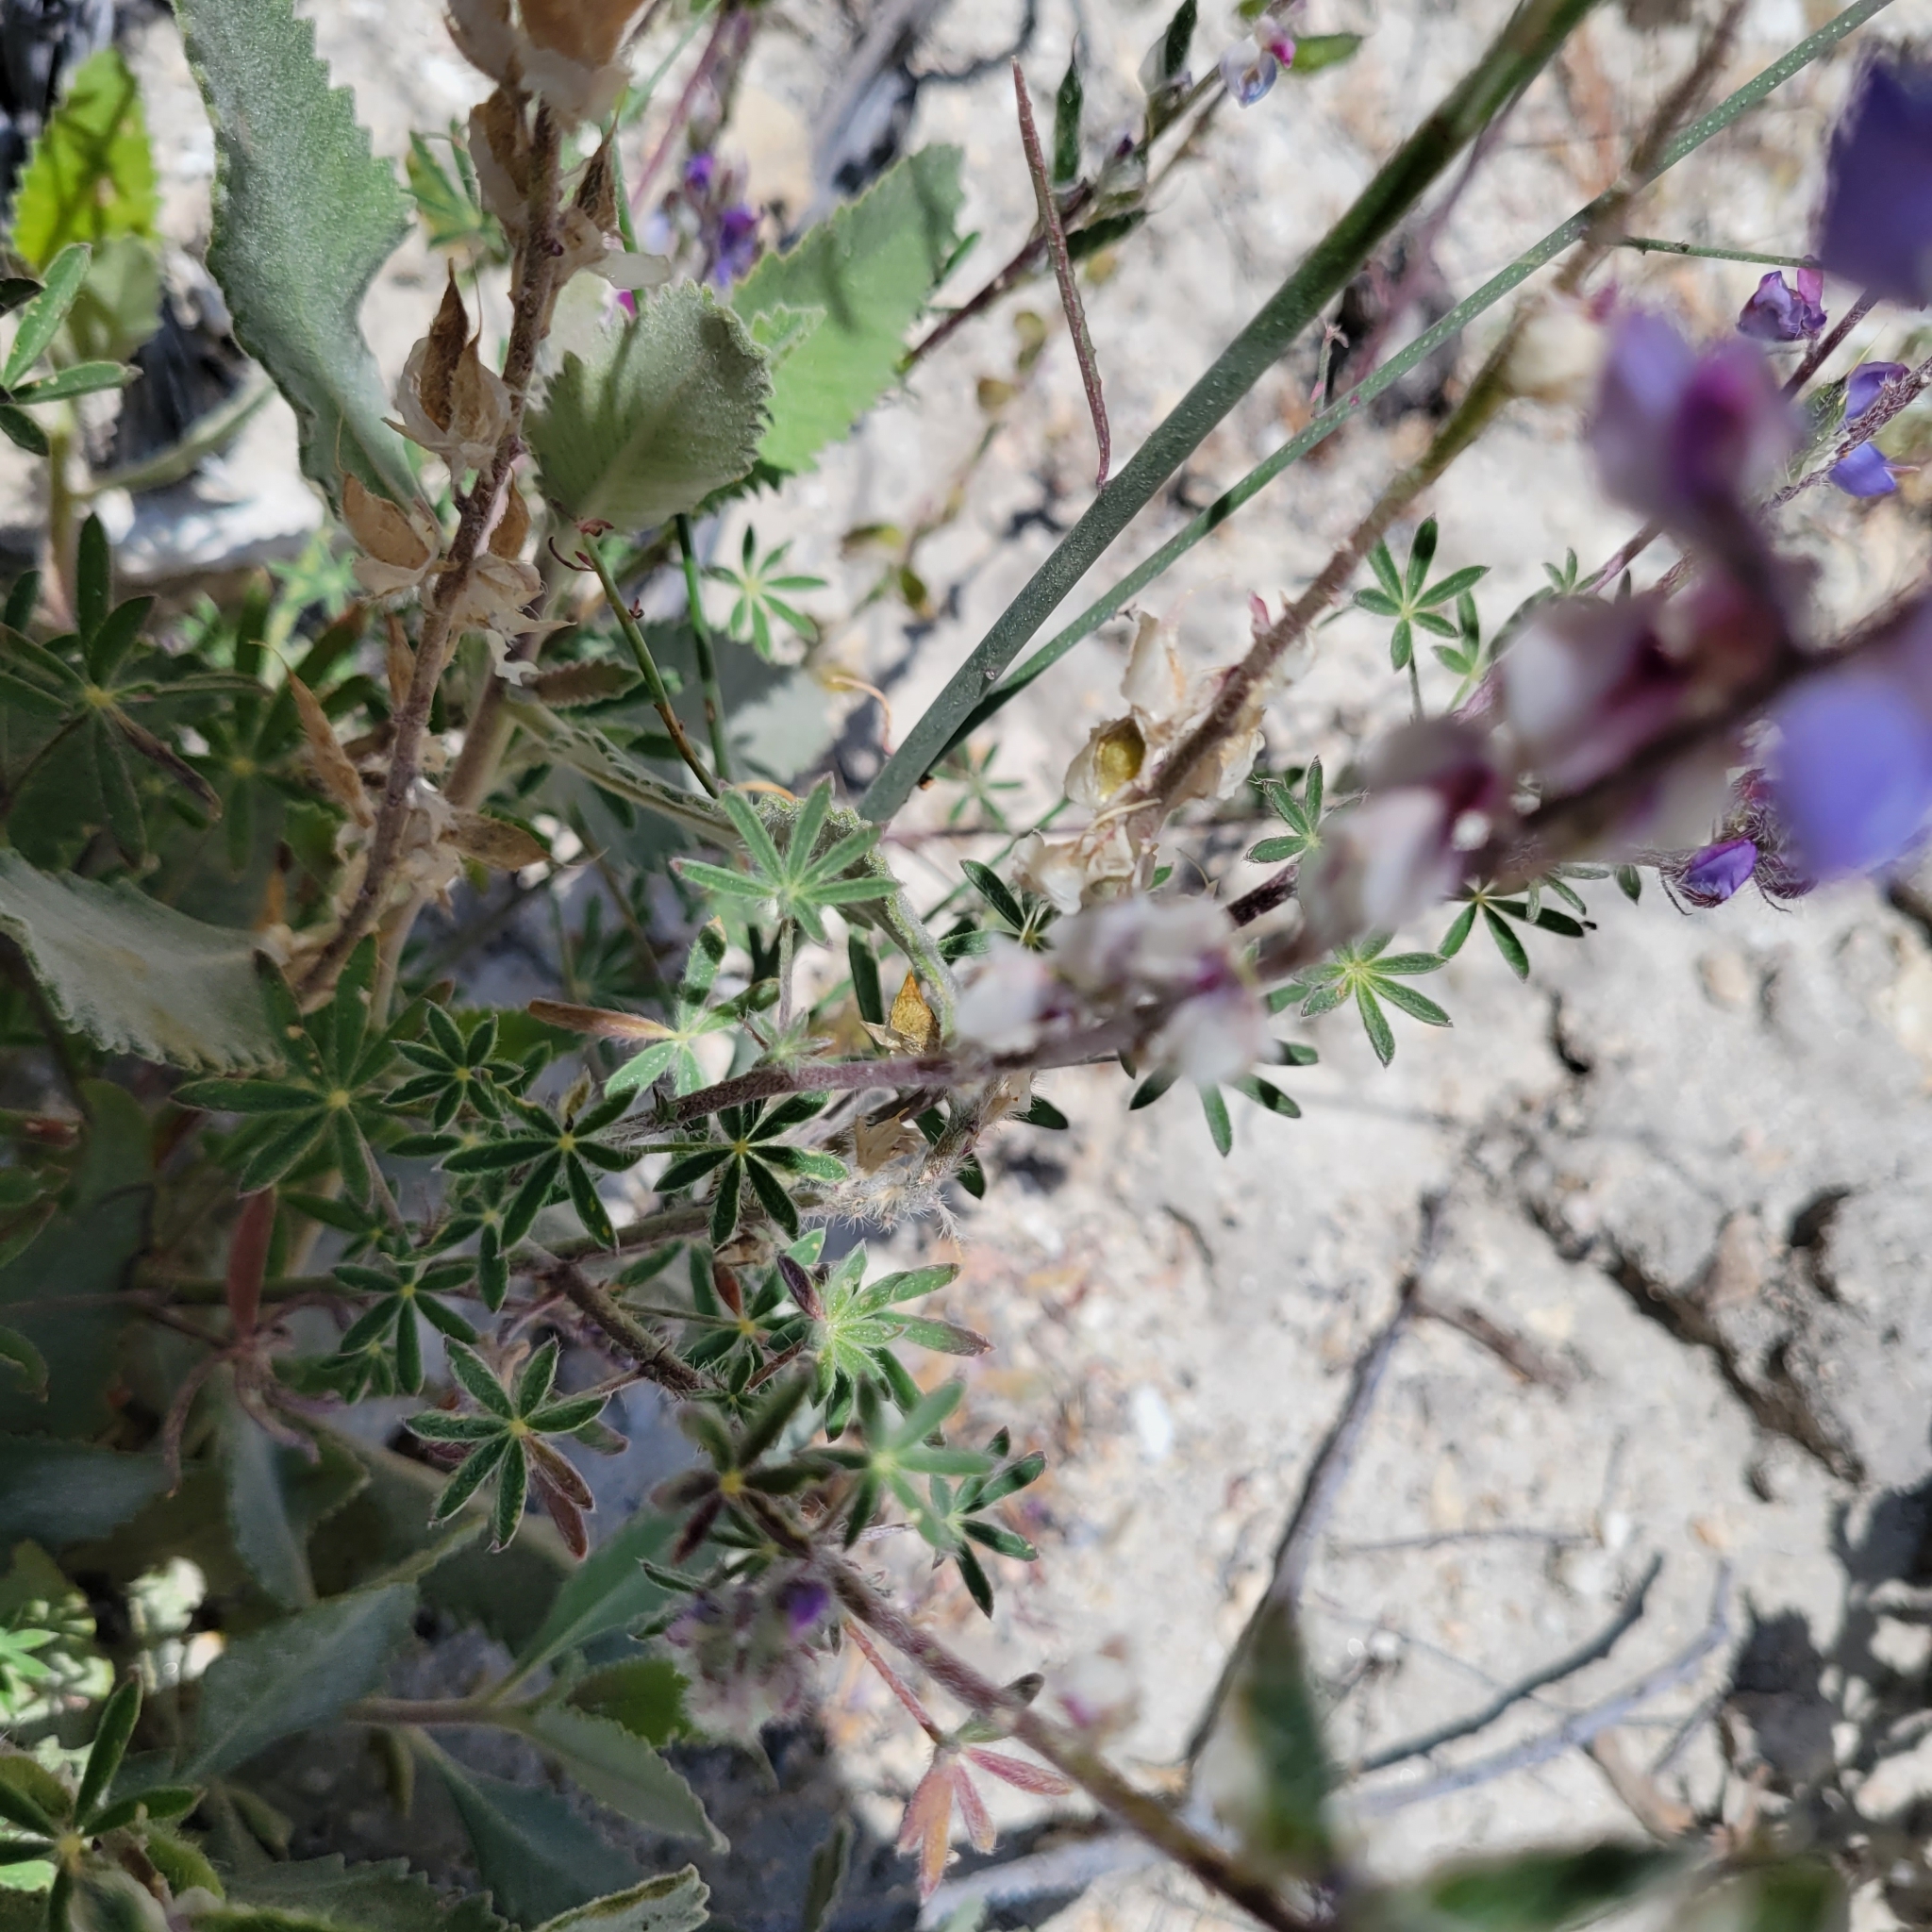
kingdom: Plantae
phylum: Tracheophyta
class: Magnoliopsida
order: Fabales
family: Fabaceae
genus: Lupinus
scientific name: Lupinus sparsiflorus
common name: Coulter's lupine
